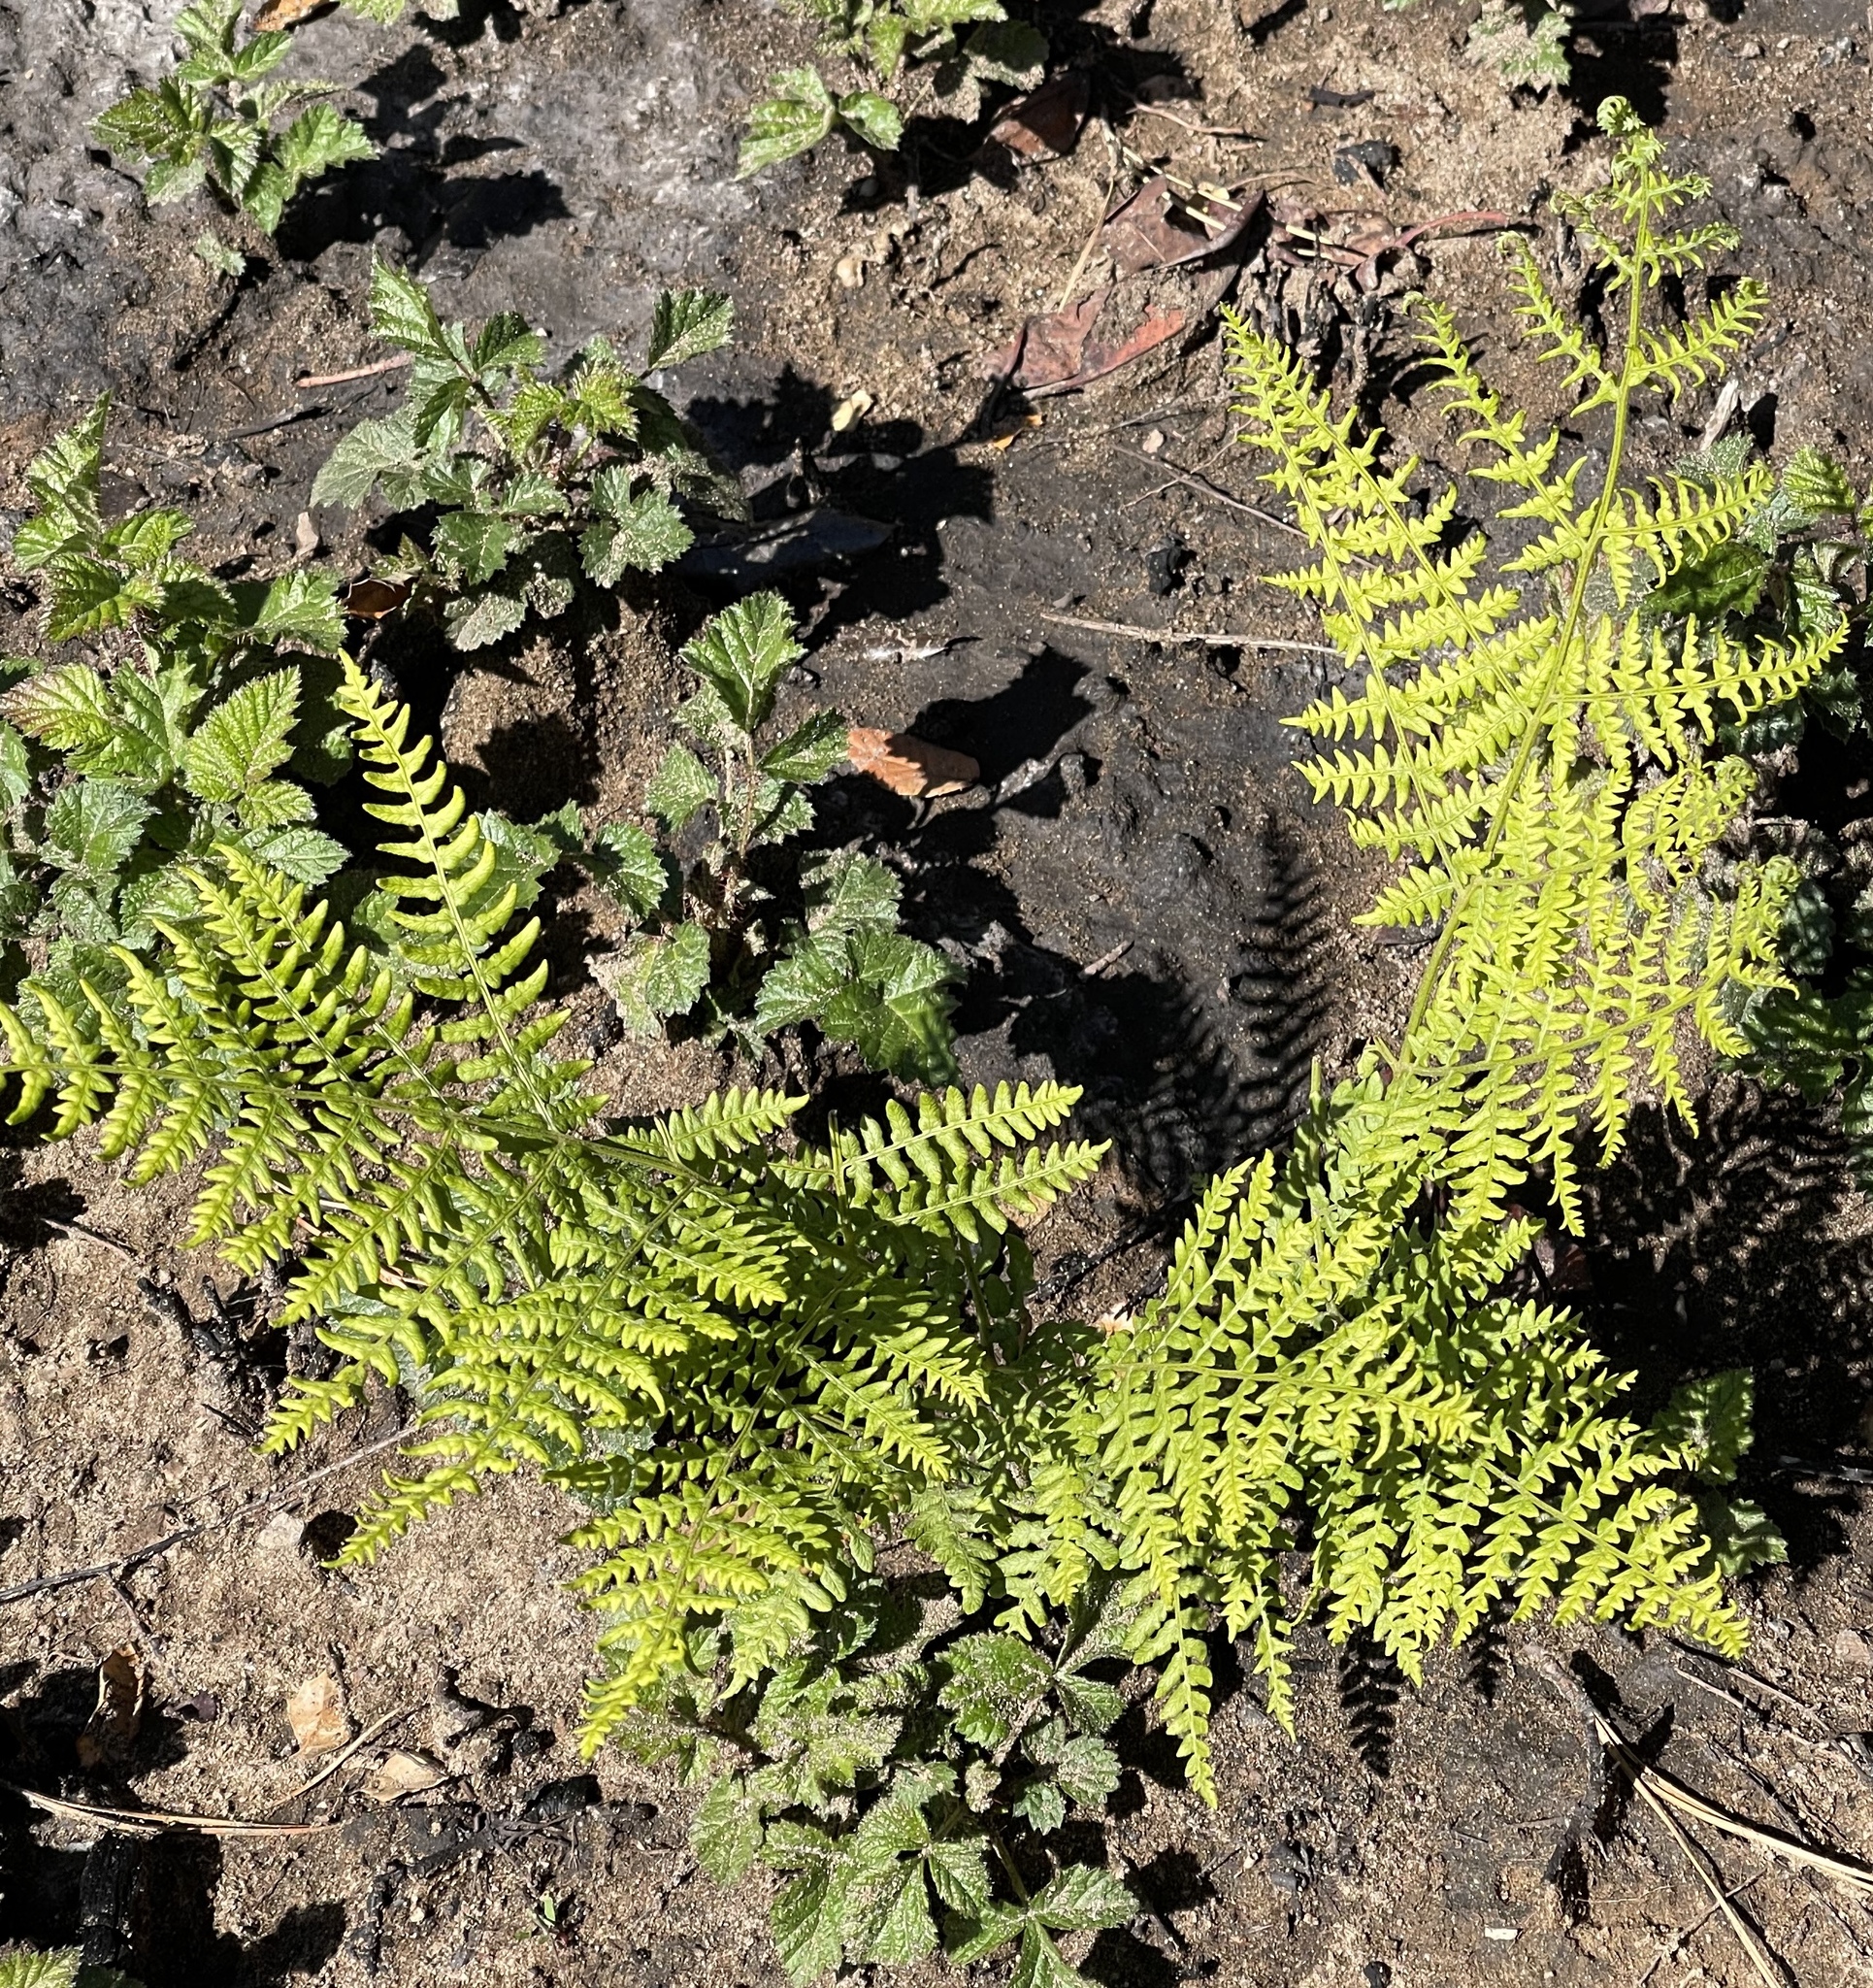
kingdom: Plantae
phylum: Tracheophyta
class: Polypodiopsida
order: Polypodiales
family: Dennstaedtiaceae
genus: Pteridium
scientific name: Pteridium aquilinum
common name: Bracken
